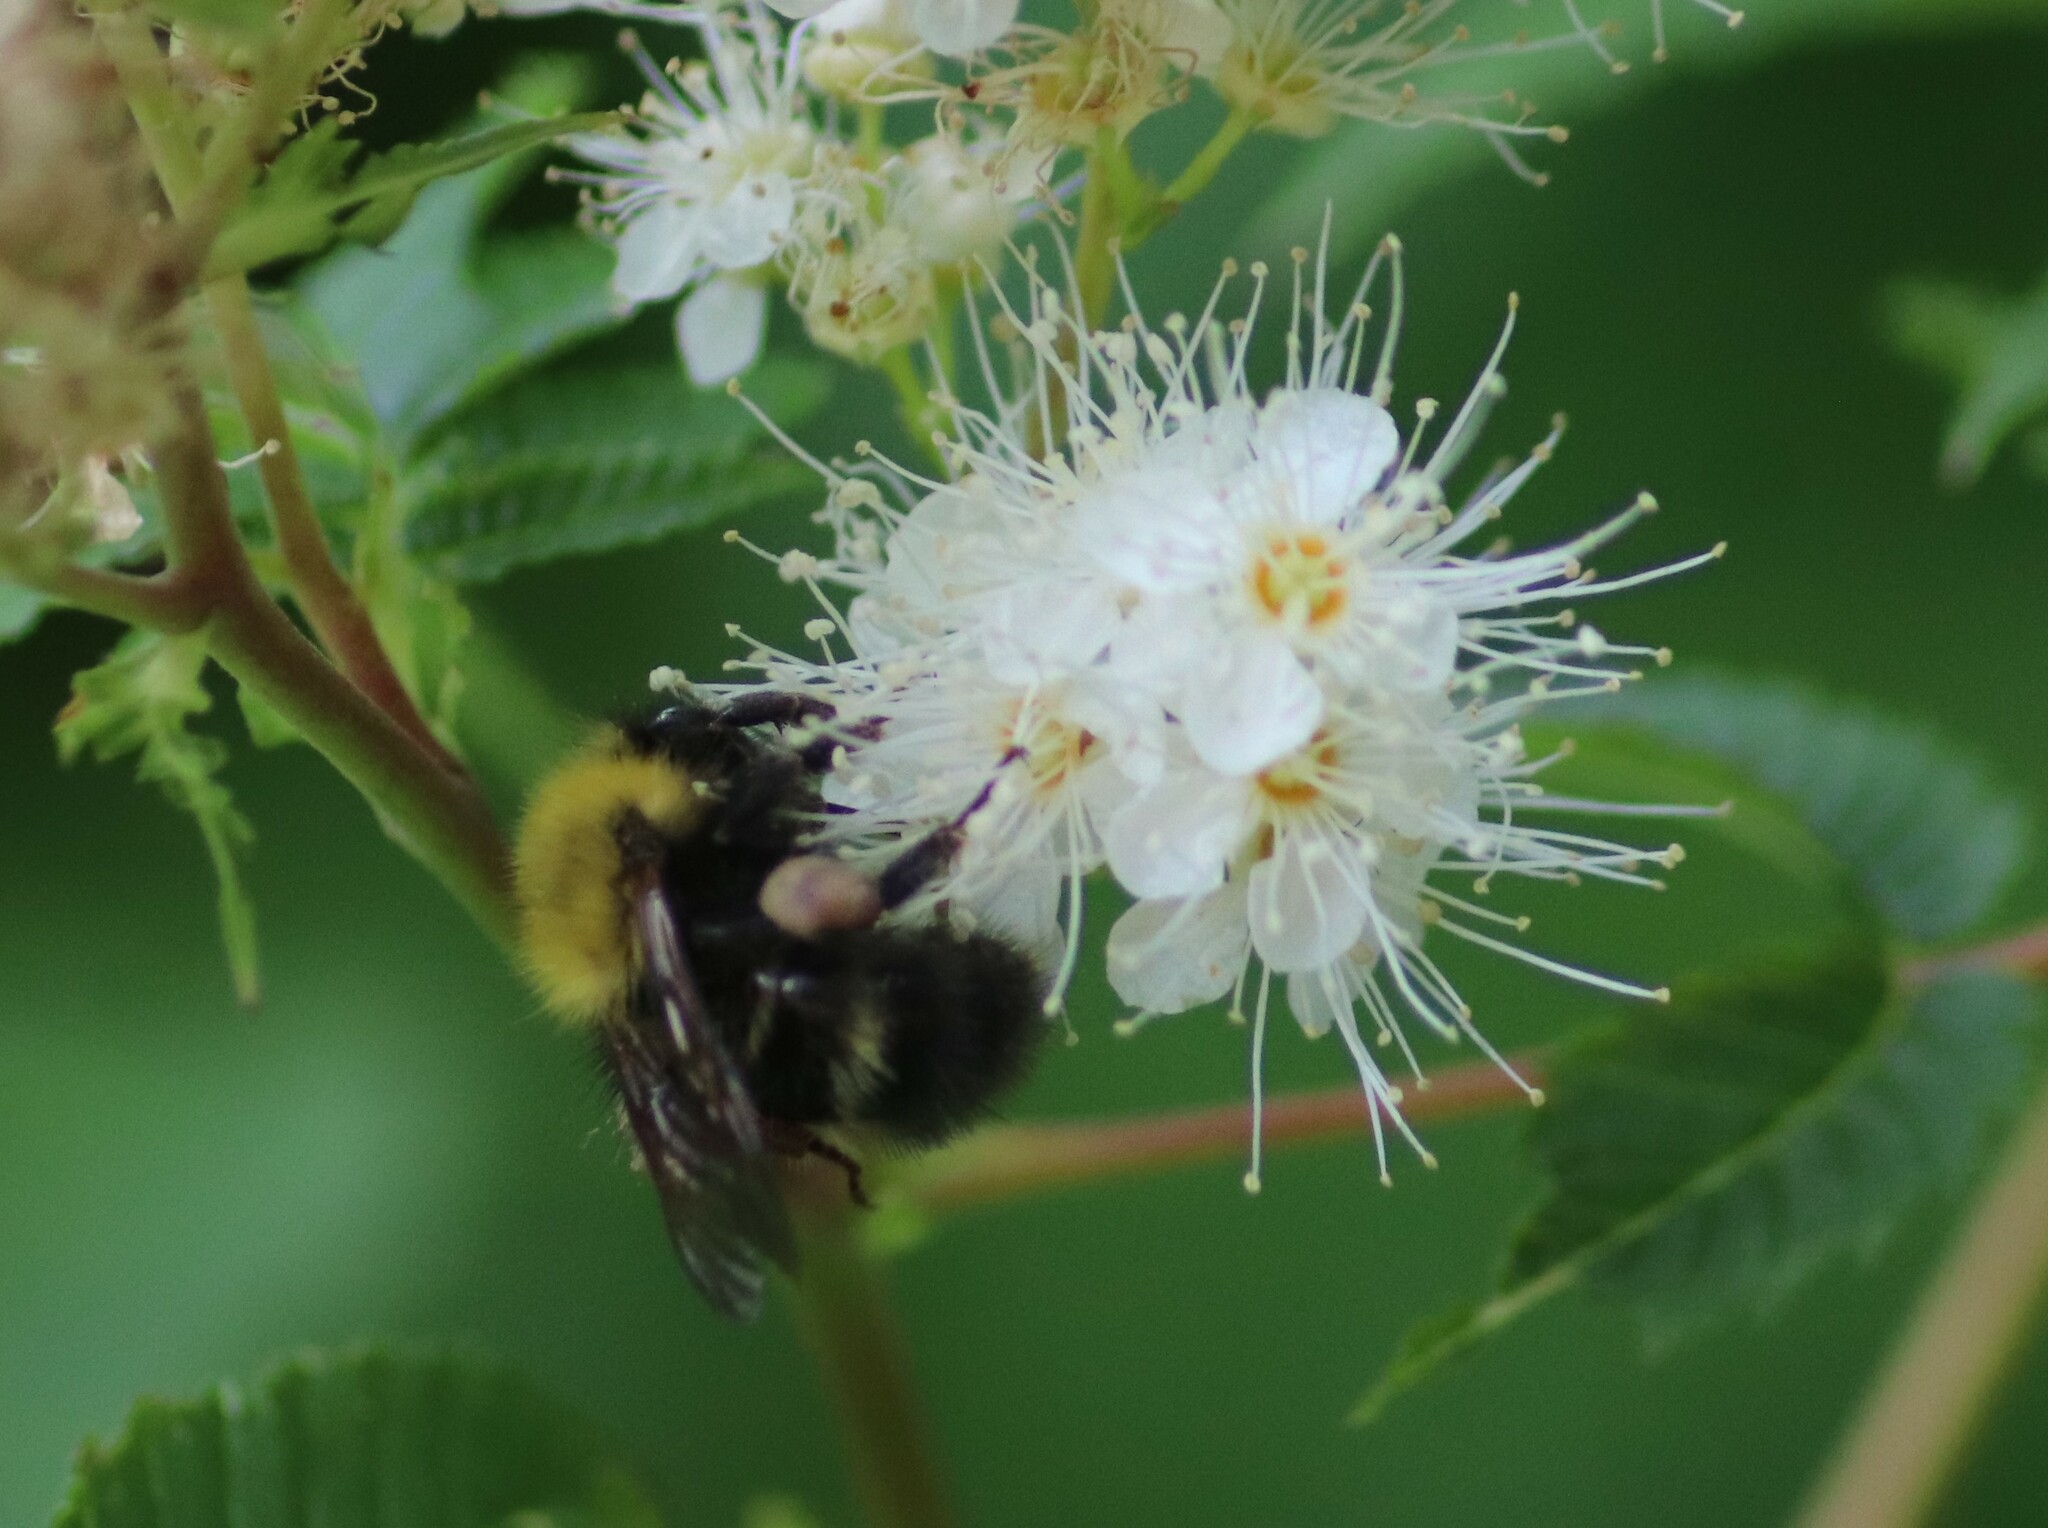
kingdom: Animalia
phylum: Arthropoda
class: Insecta
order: Hymenoptera
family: Apidae
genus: Bombus
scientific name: Bombus perplexus
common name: Confusing bumble bee
